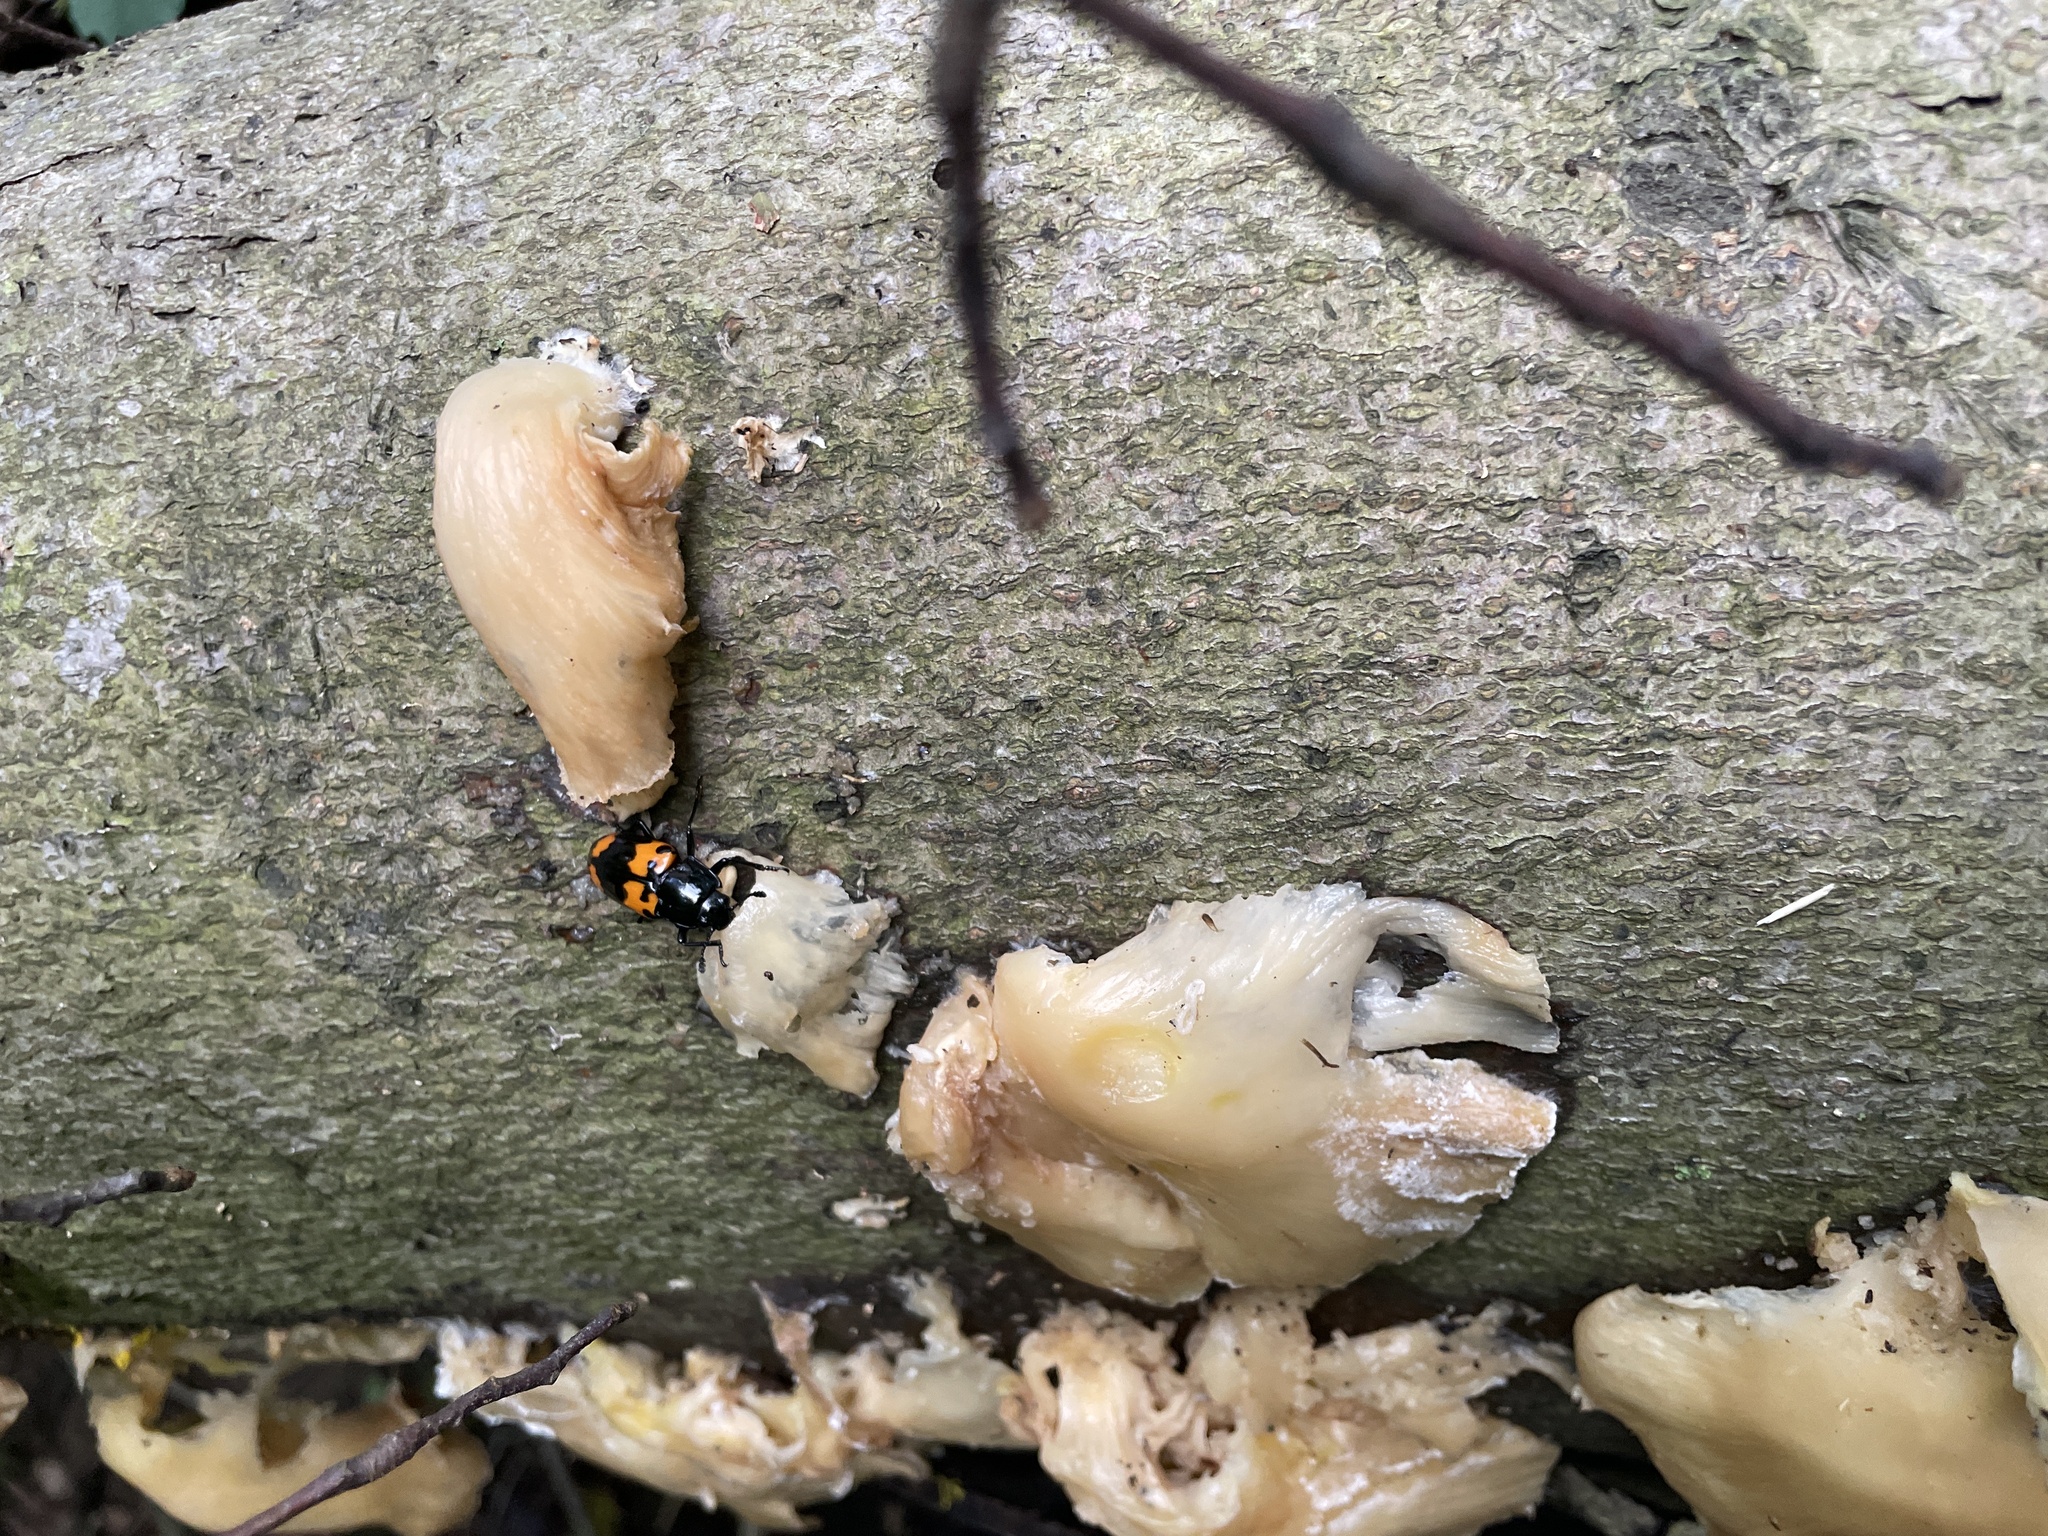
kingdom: Animalia
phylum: Arthropoda
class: Insecta
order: Coleoptera
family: Erotylidae
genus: Megalodacne
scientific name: Megalodacne heros
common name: Pleasing fungus beetle
